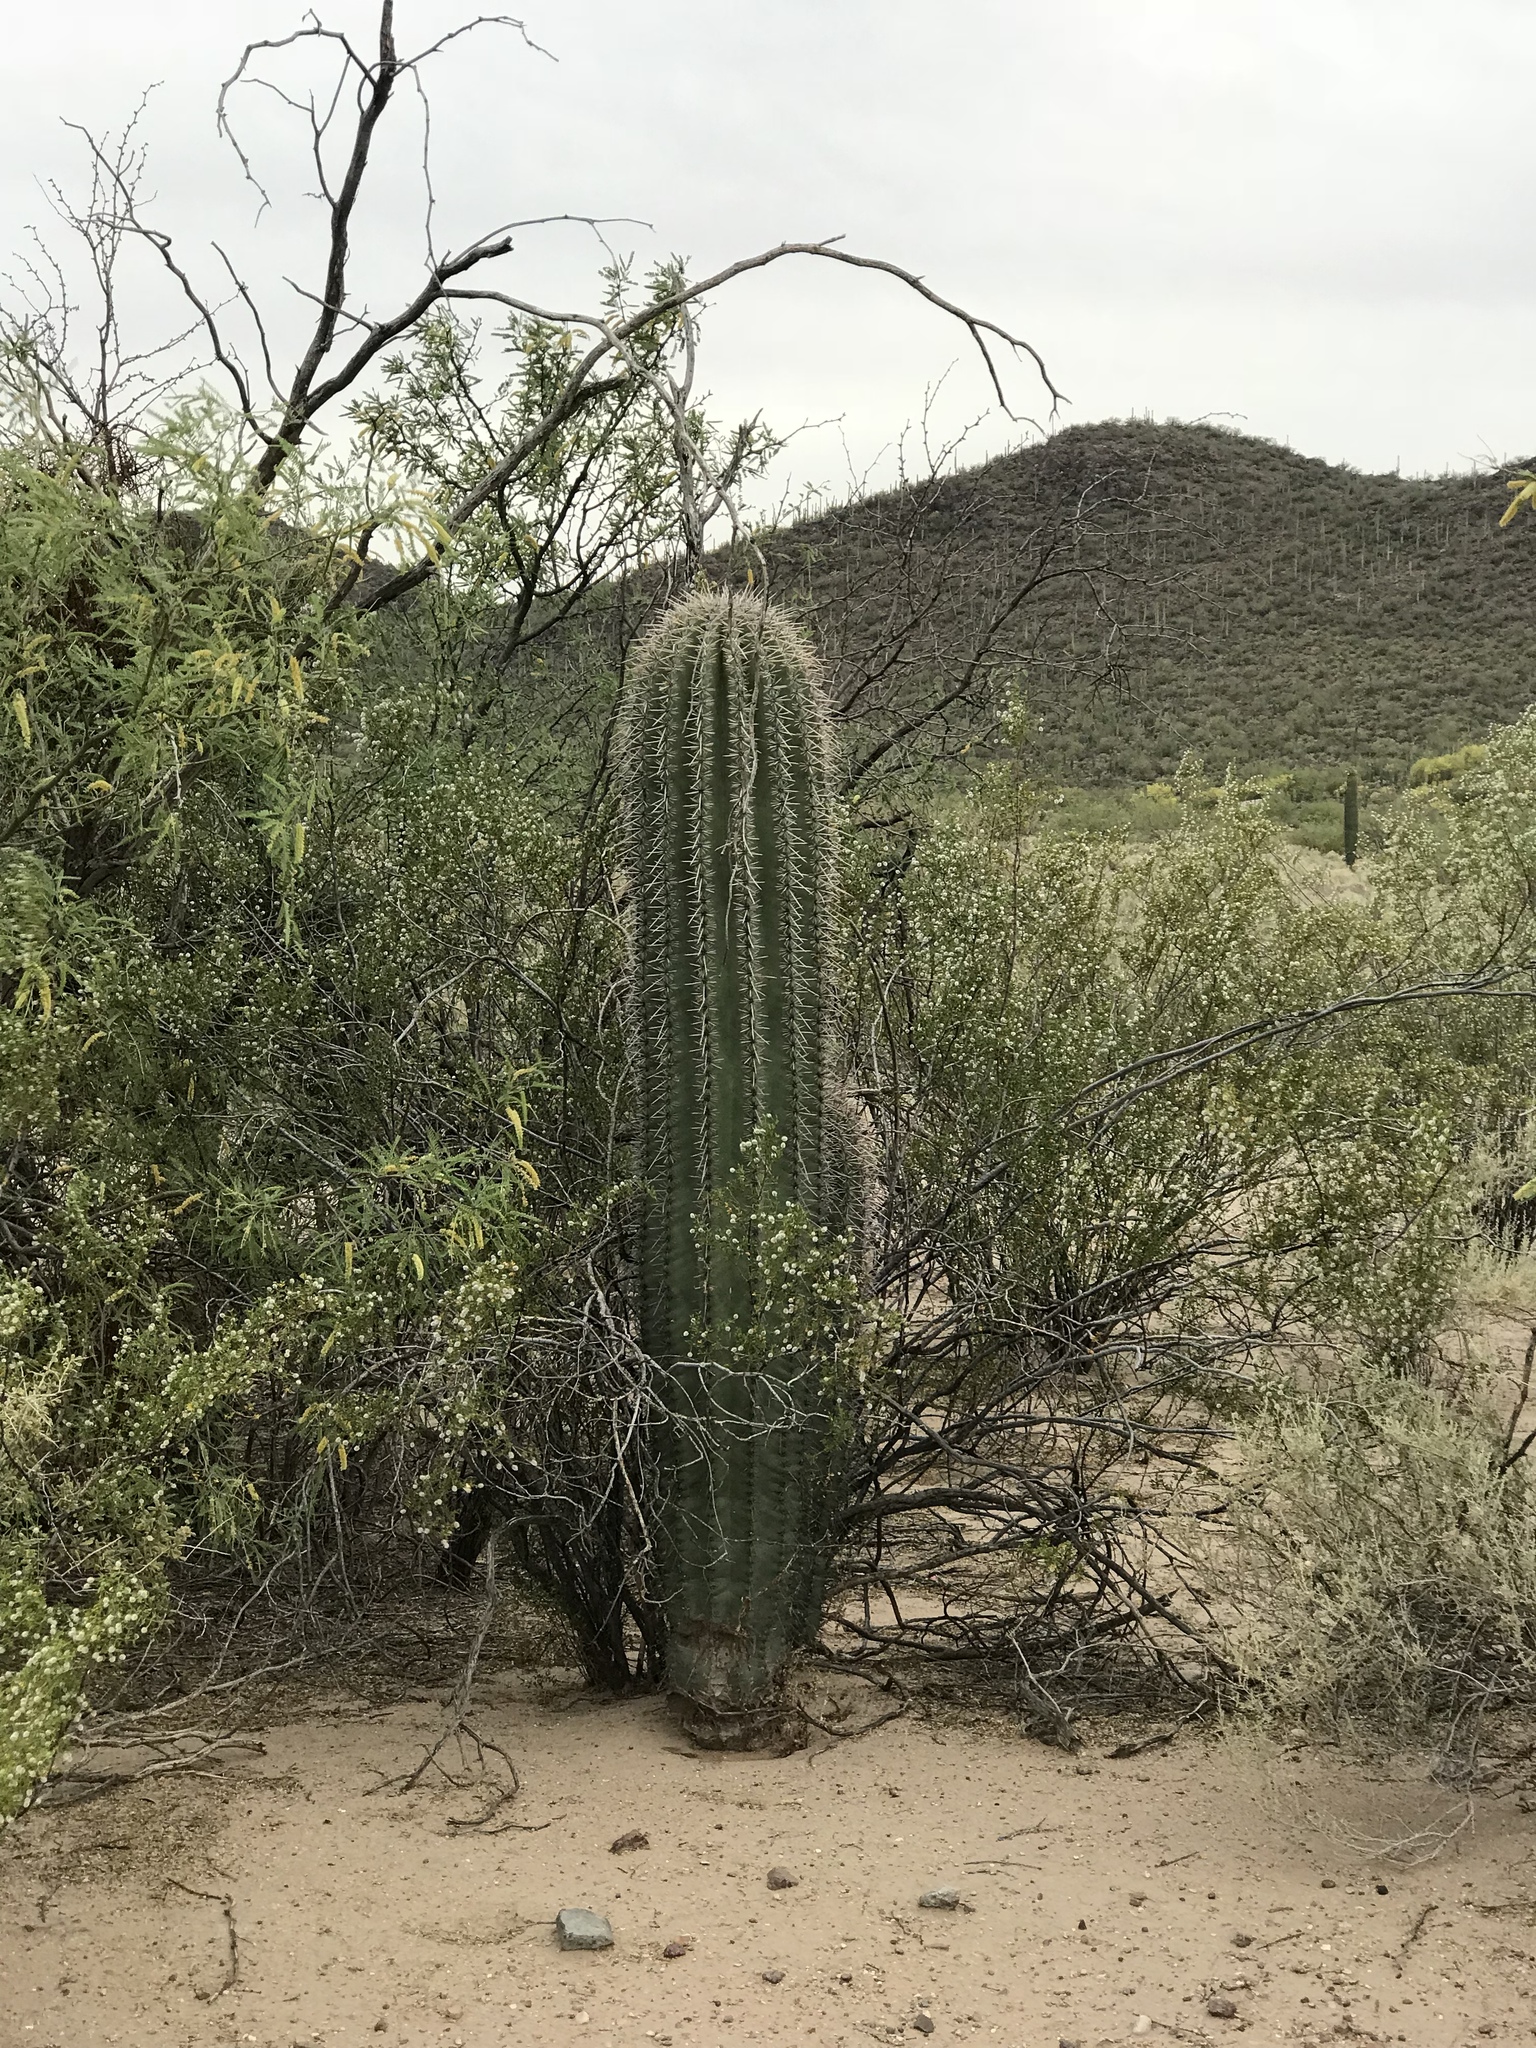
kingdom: Plantae
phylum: Tracheophyta
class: Magnoliopsida
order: Caryophyllales
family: Cactaceae
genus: Carnegiea
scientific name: Carnegiea gigantea
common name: Saguaro
